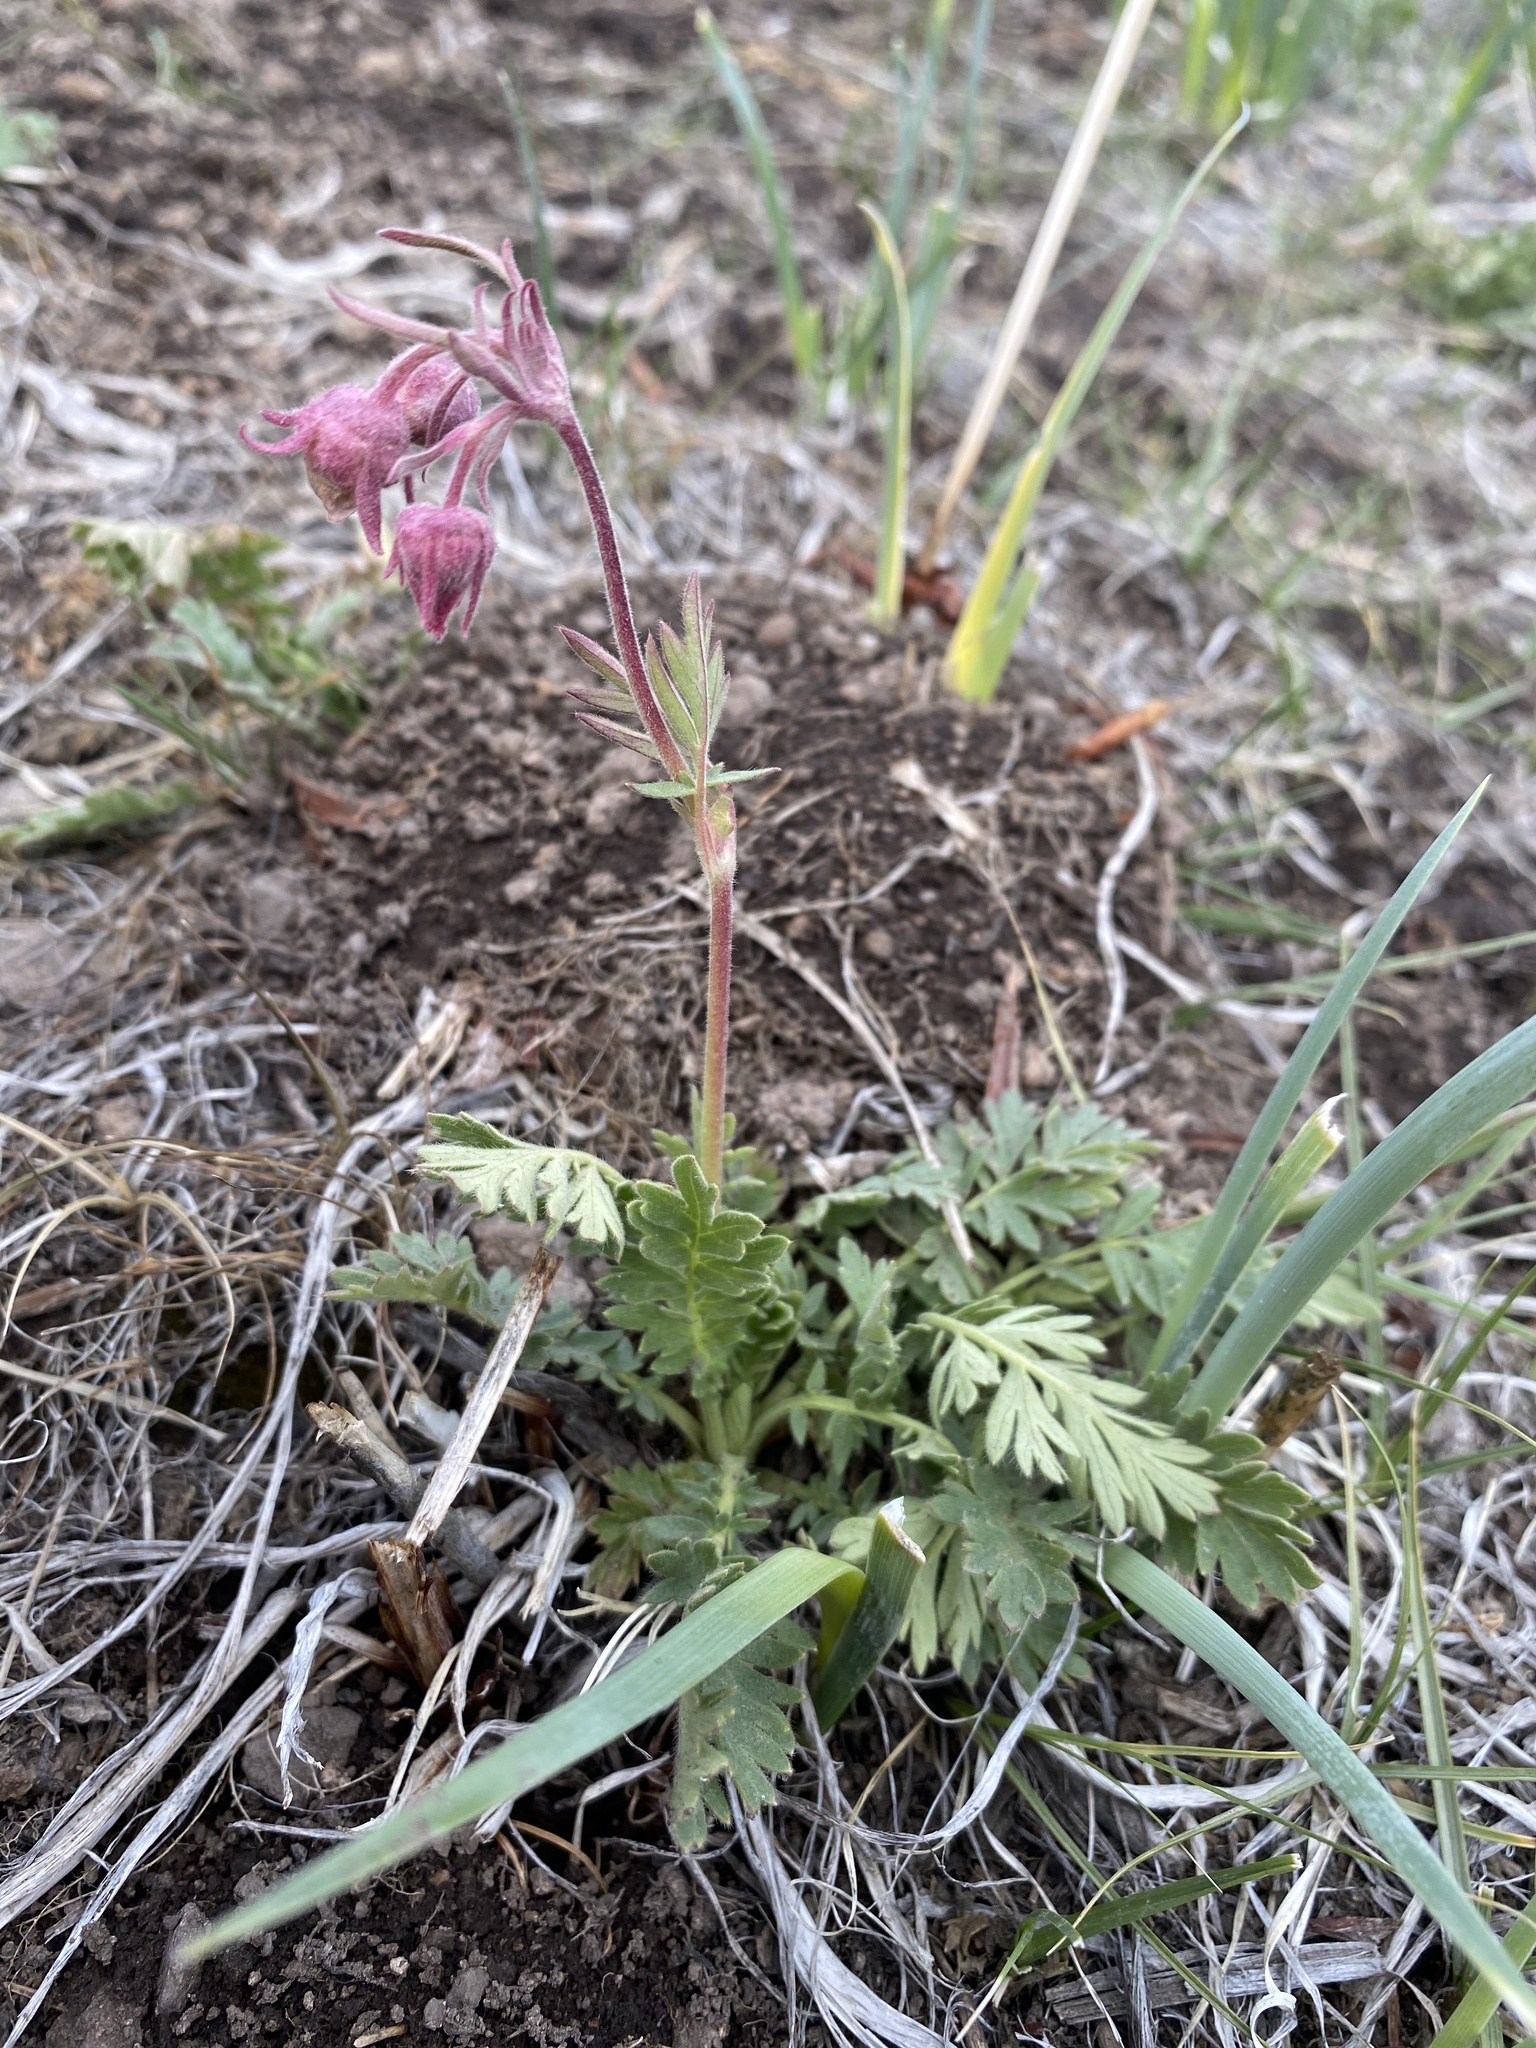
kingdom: Plantae
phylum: Tracheophyta
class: Magnoliopsida
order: Rosales
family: Rosaceae
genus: Geum
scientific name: Geum triflorum
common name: Old man's whiskers
